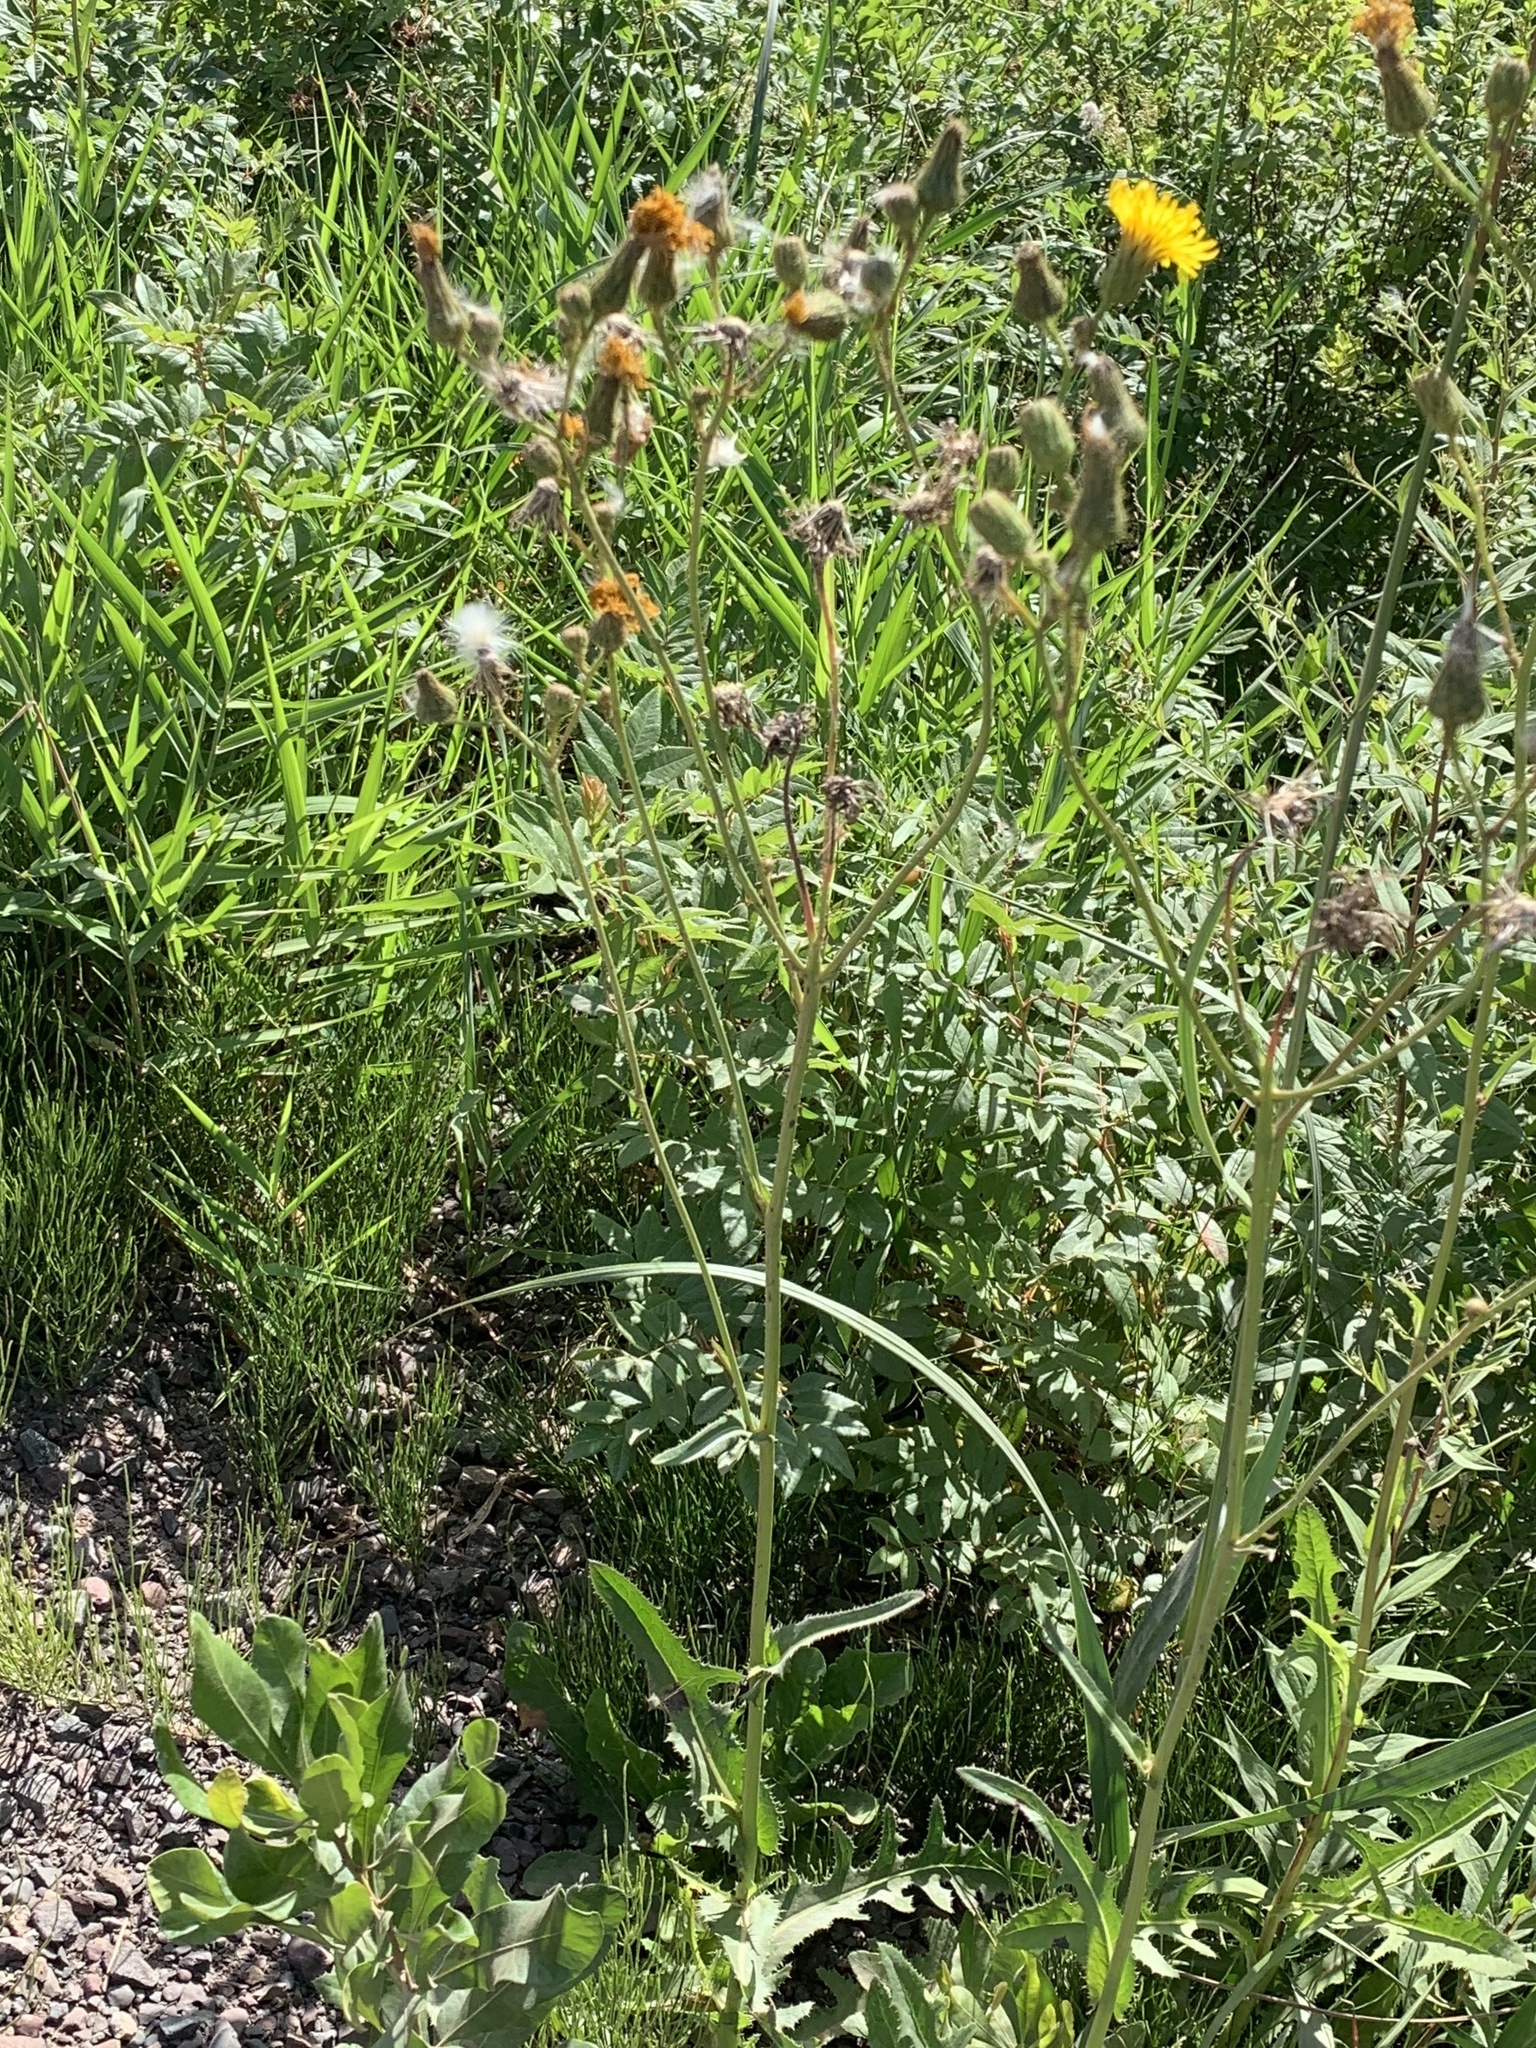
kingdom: Plantae
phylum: Tracheophyta
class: Magnoliopsida
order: Asterales
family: Asteraceae
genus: Sonchus
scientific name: Sonchus arvensis
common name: Perennial sow-thistle
